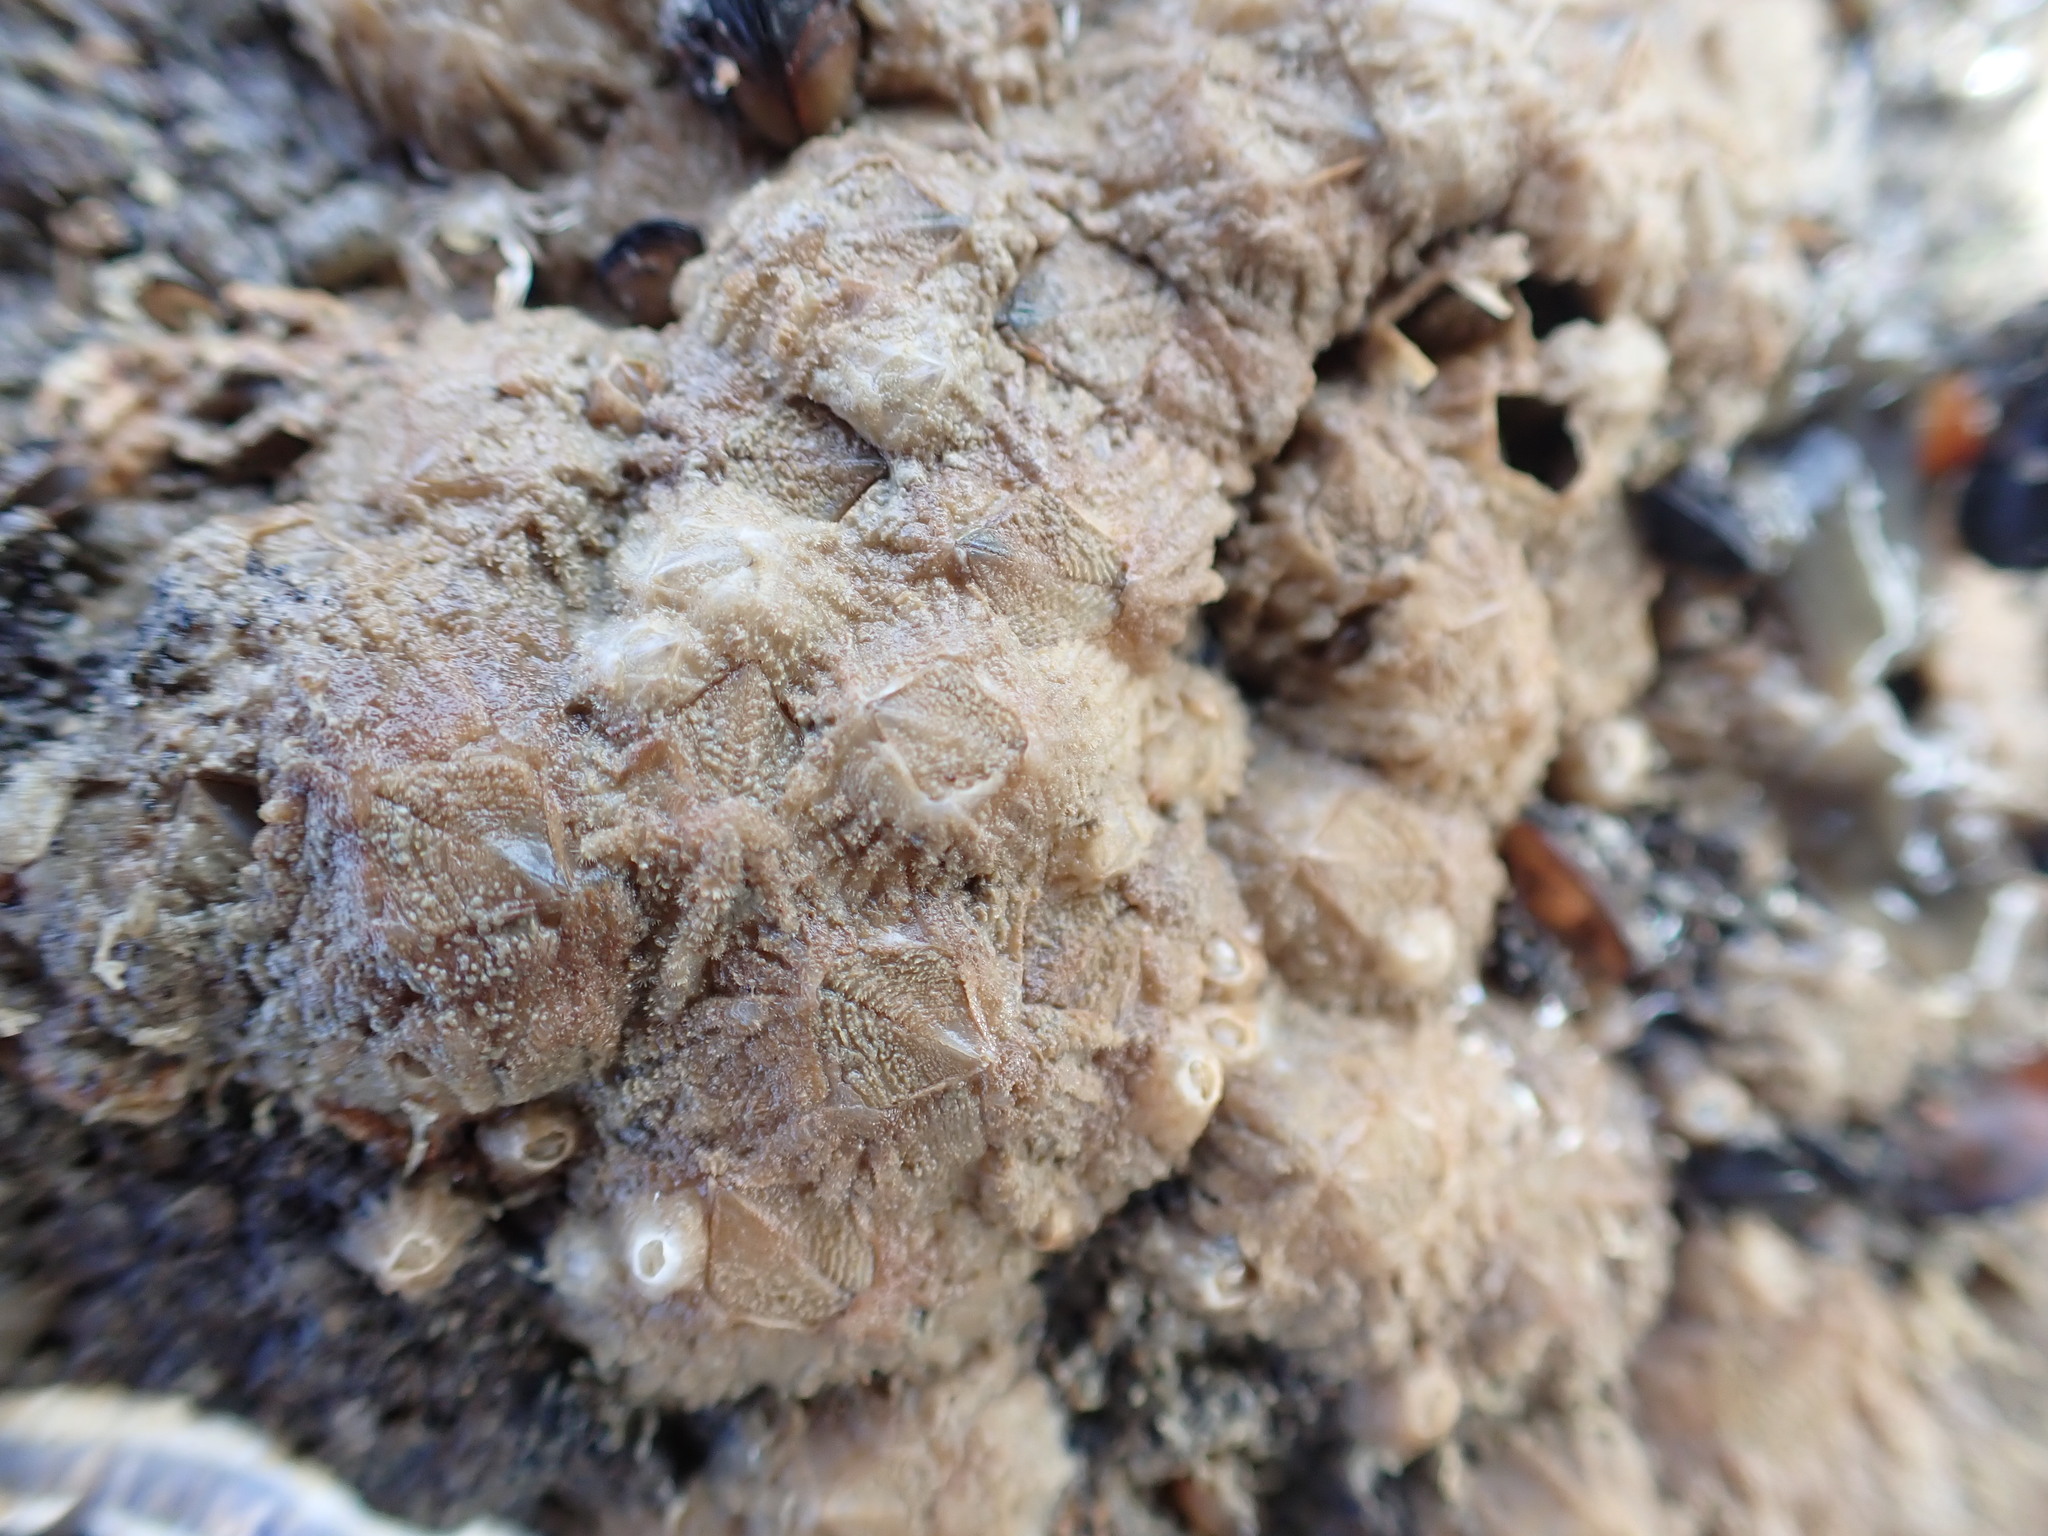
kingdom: Animalia
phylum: Arthropoda
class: Maxillopoda
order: Sessilia
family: Tetraclitidae
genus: Tetraclitella
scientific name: Tetraclitella depressa
